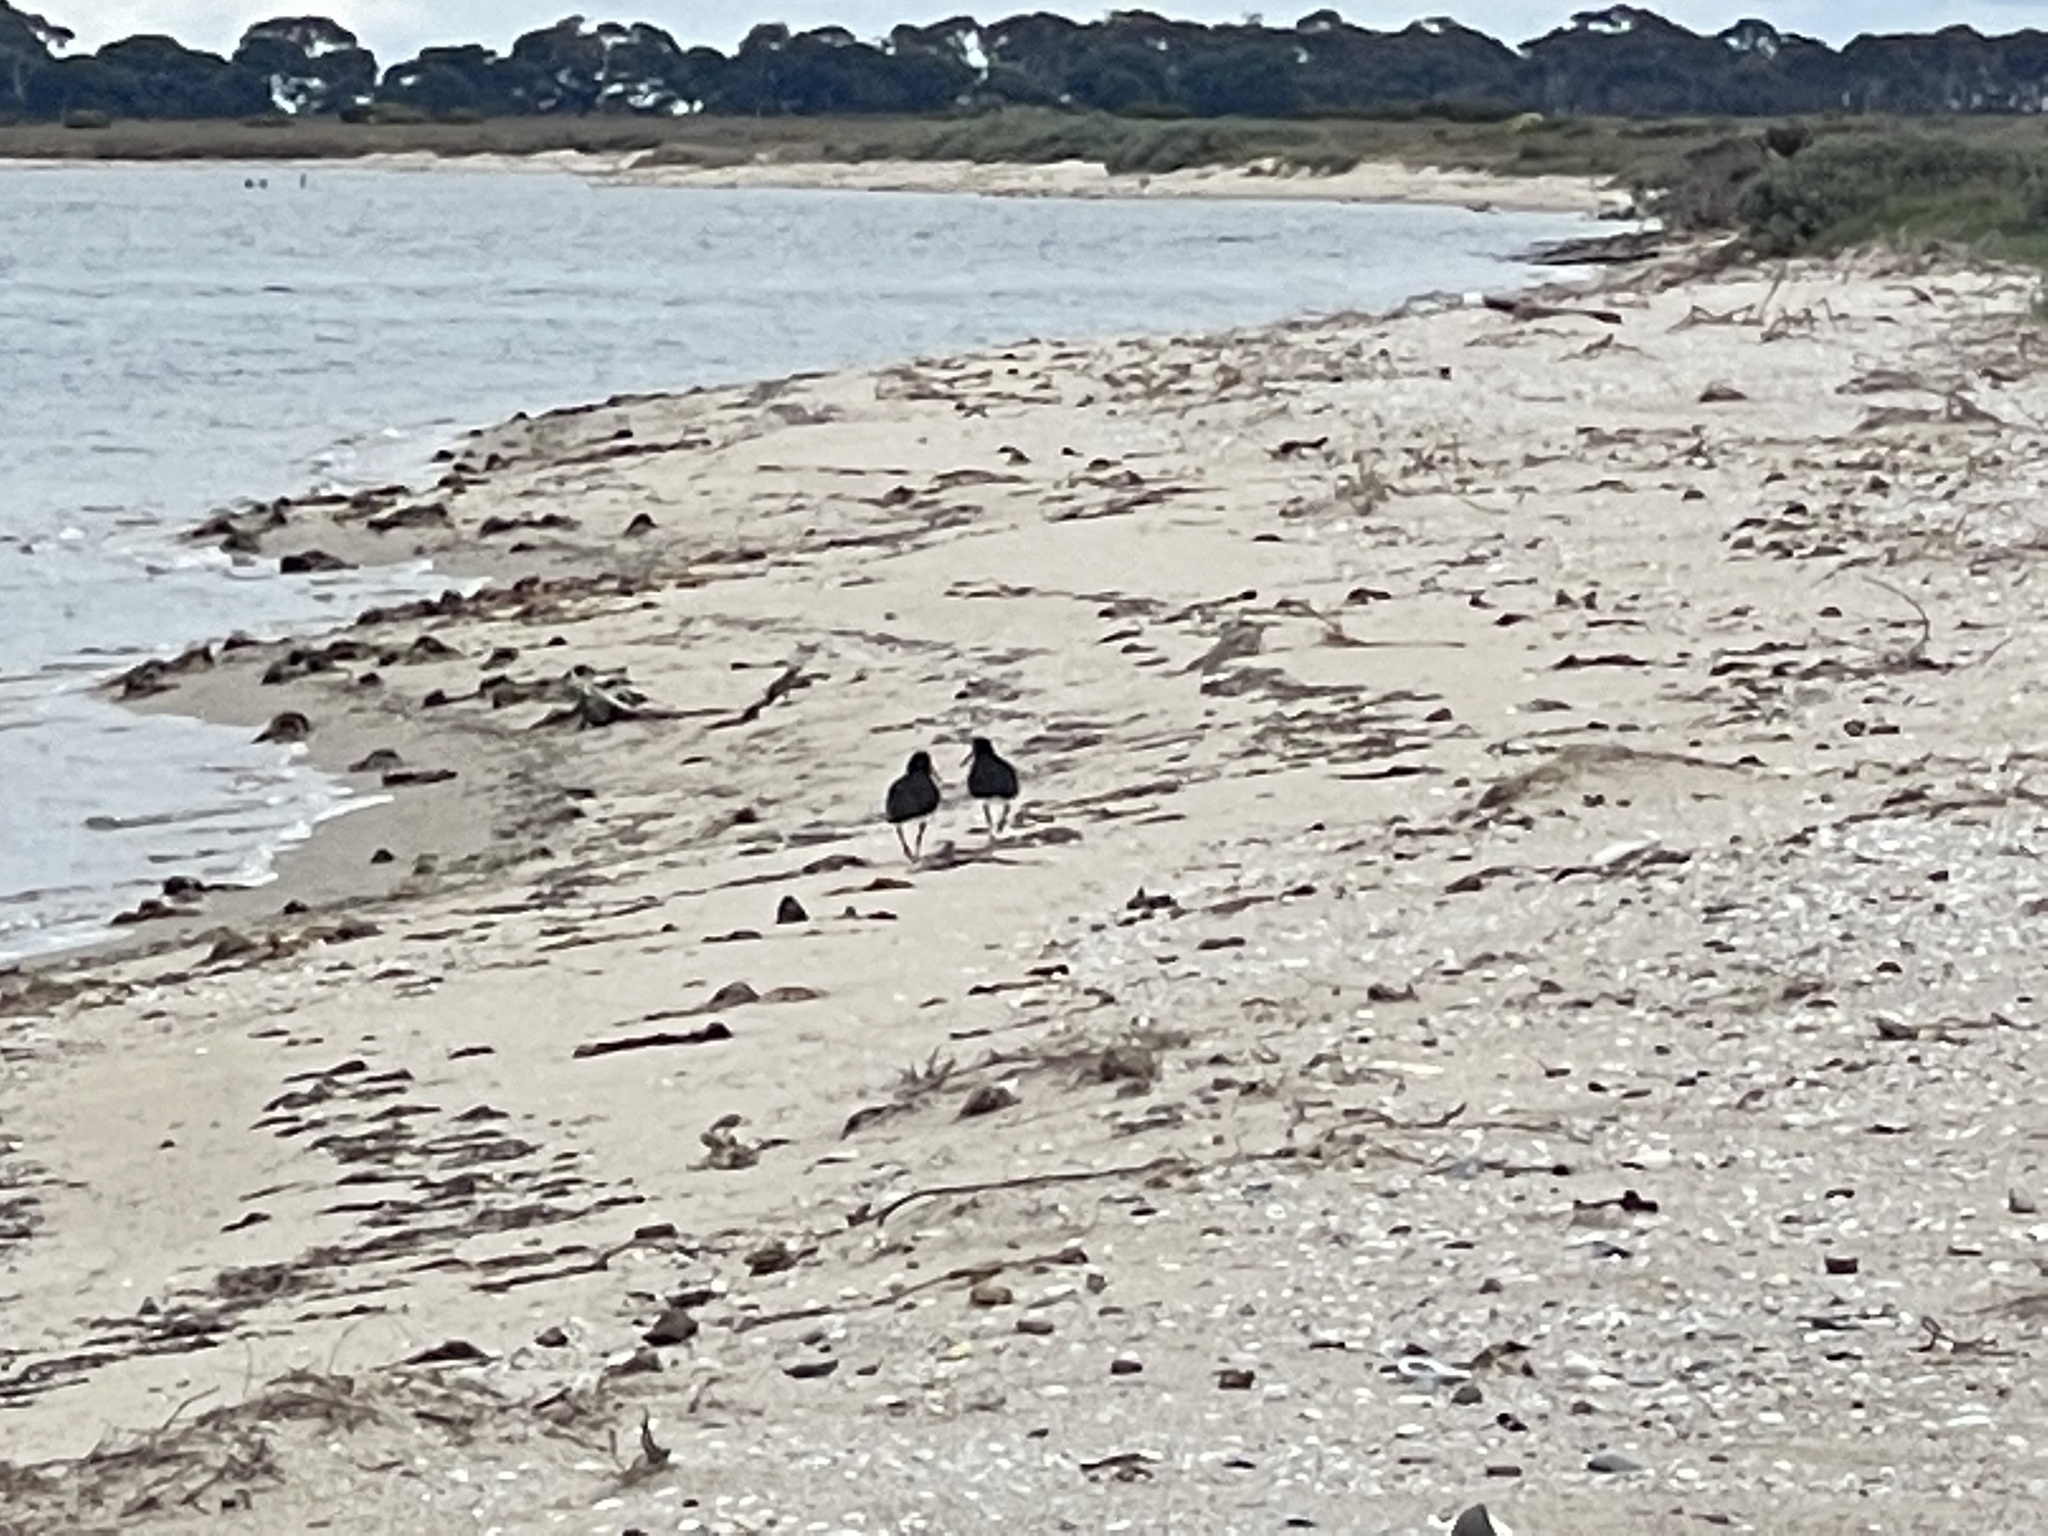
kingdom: Animalia
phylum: Chordata
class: Aves
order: Charadriiformes
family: Haematopodidae
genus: Haematopus
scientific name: Haematopus longirostris
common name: Pied oystercatcher
